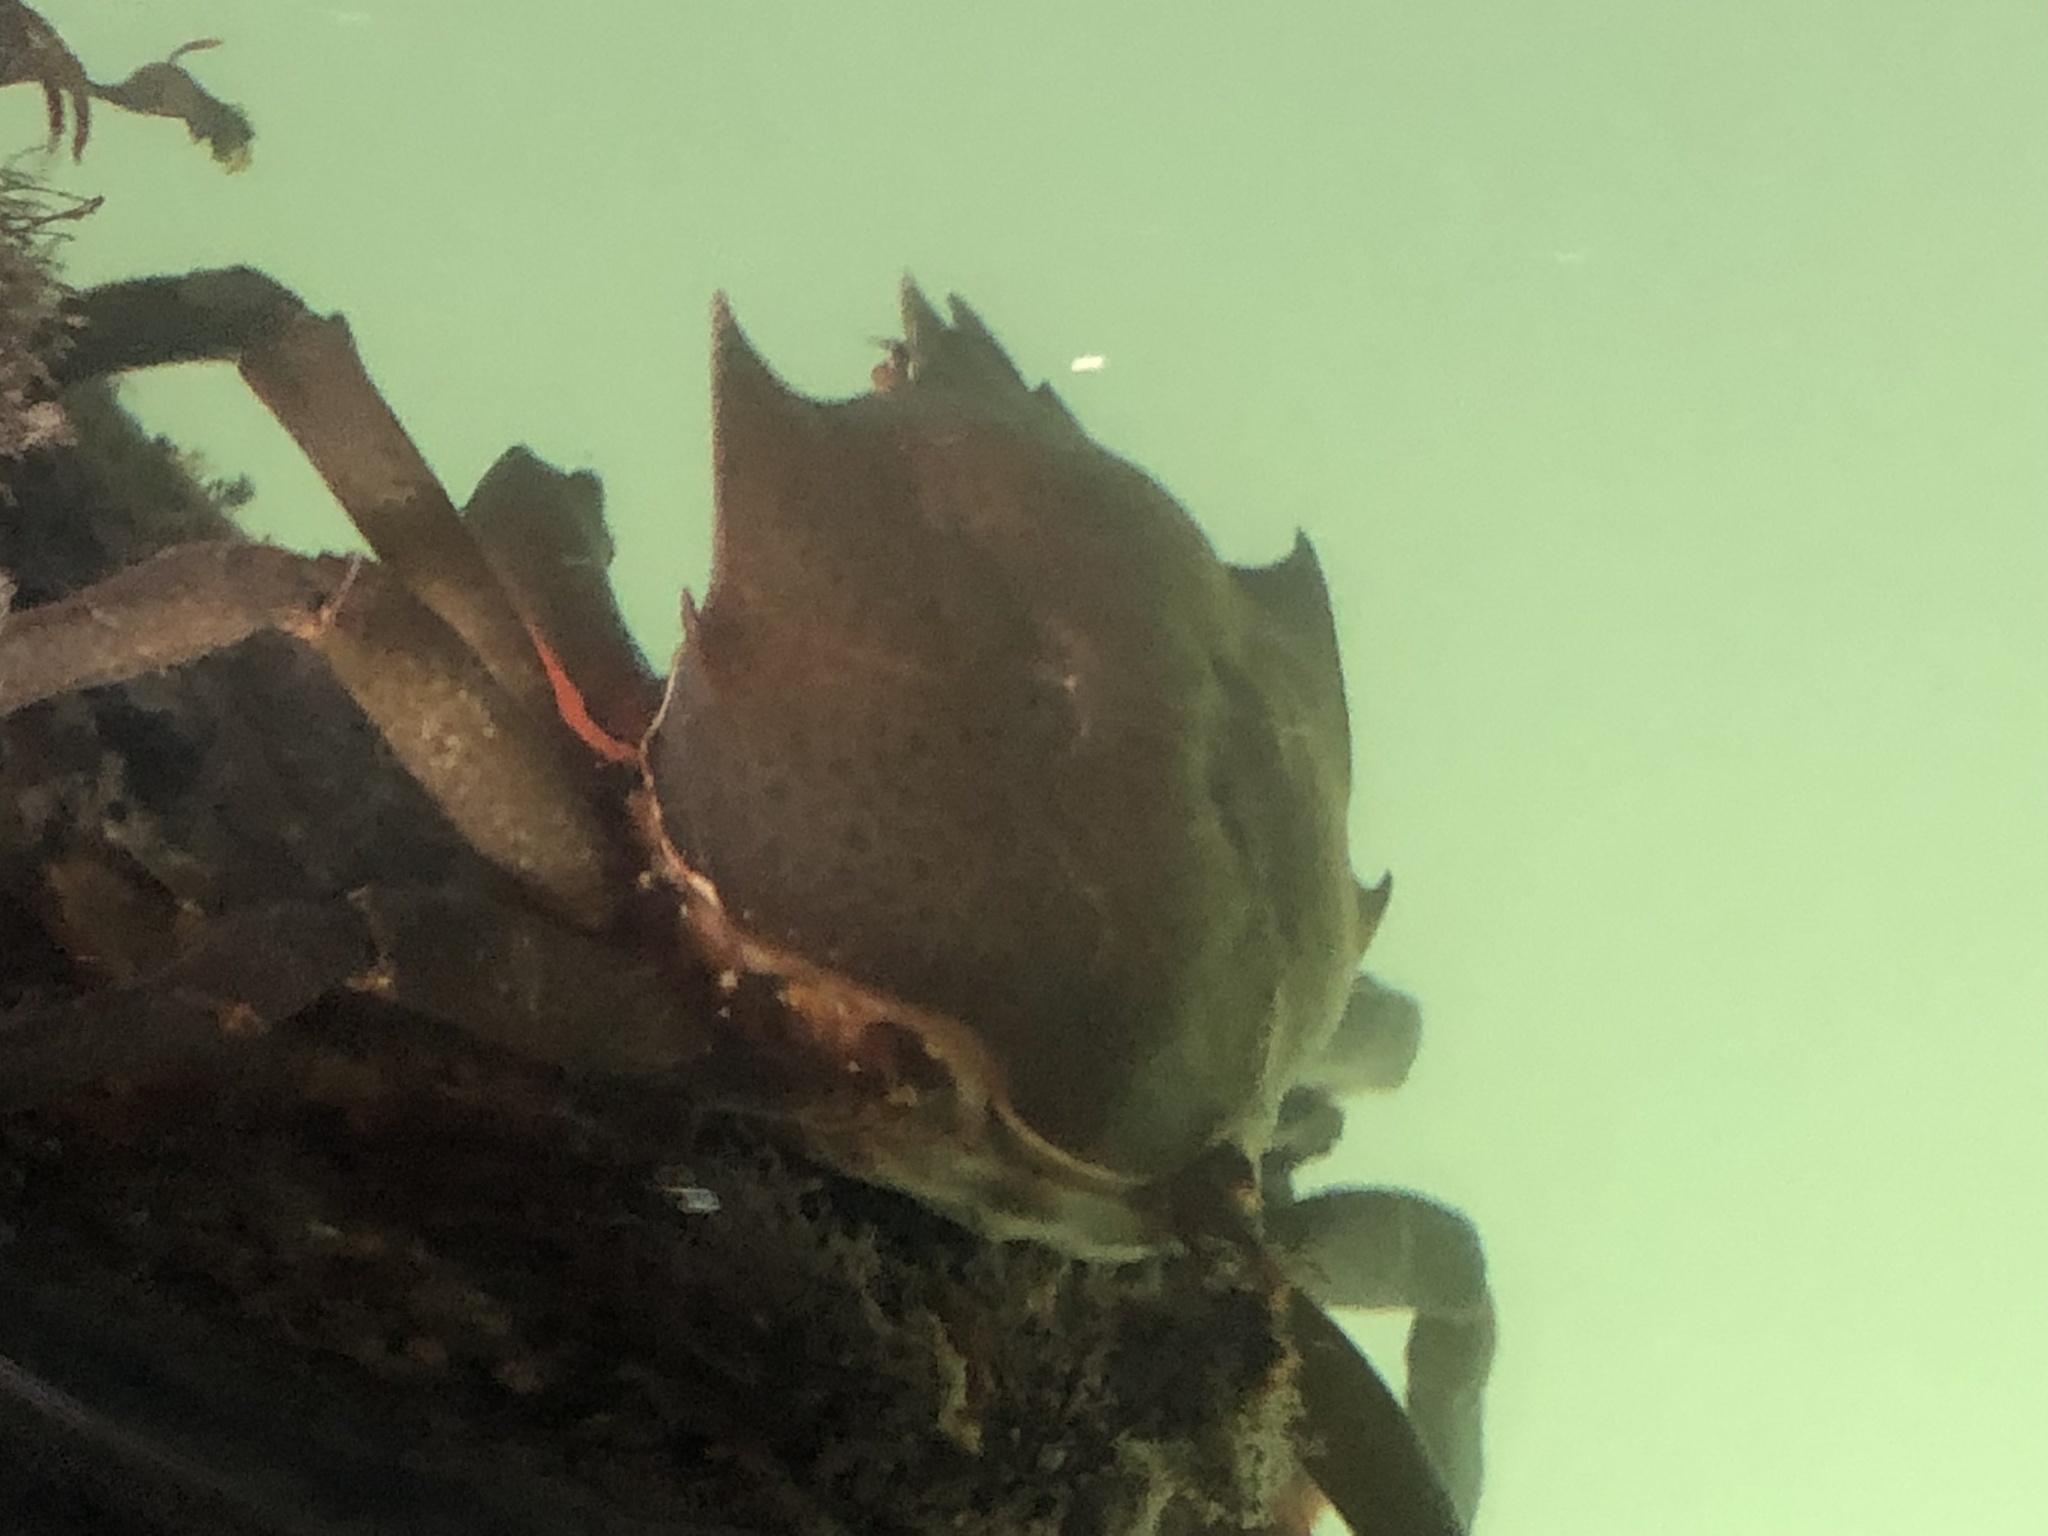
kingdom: Animalia
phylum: Arthropoda
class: Malacostraca
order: Decapoda
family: Epialtidae
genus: Pugettia
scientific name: Pugettia producta
